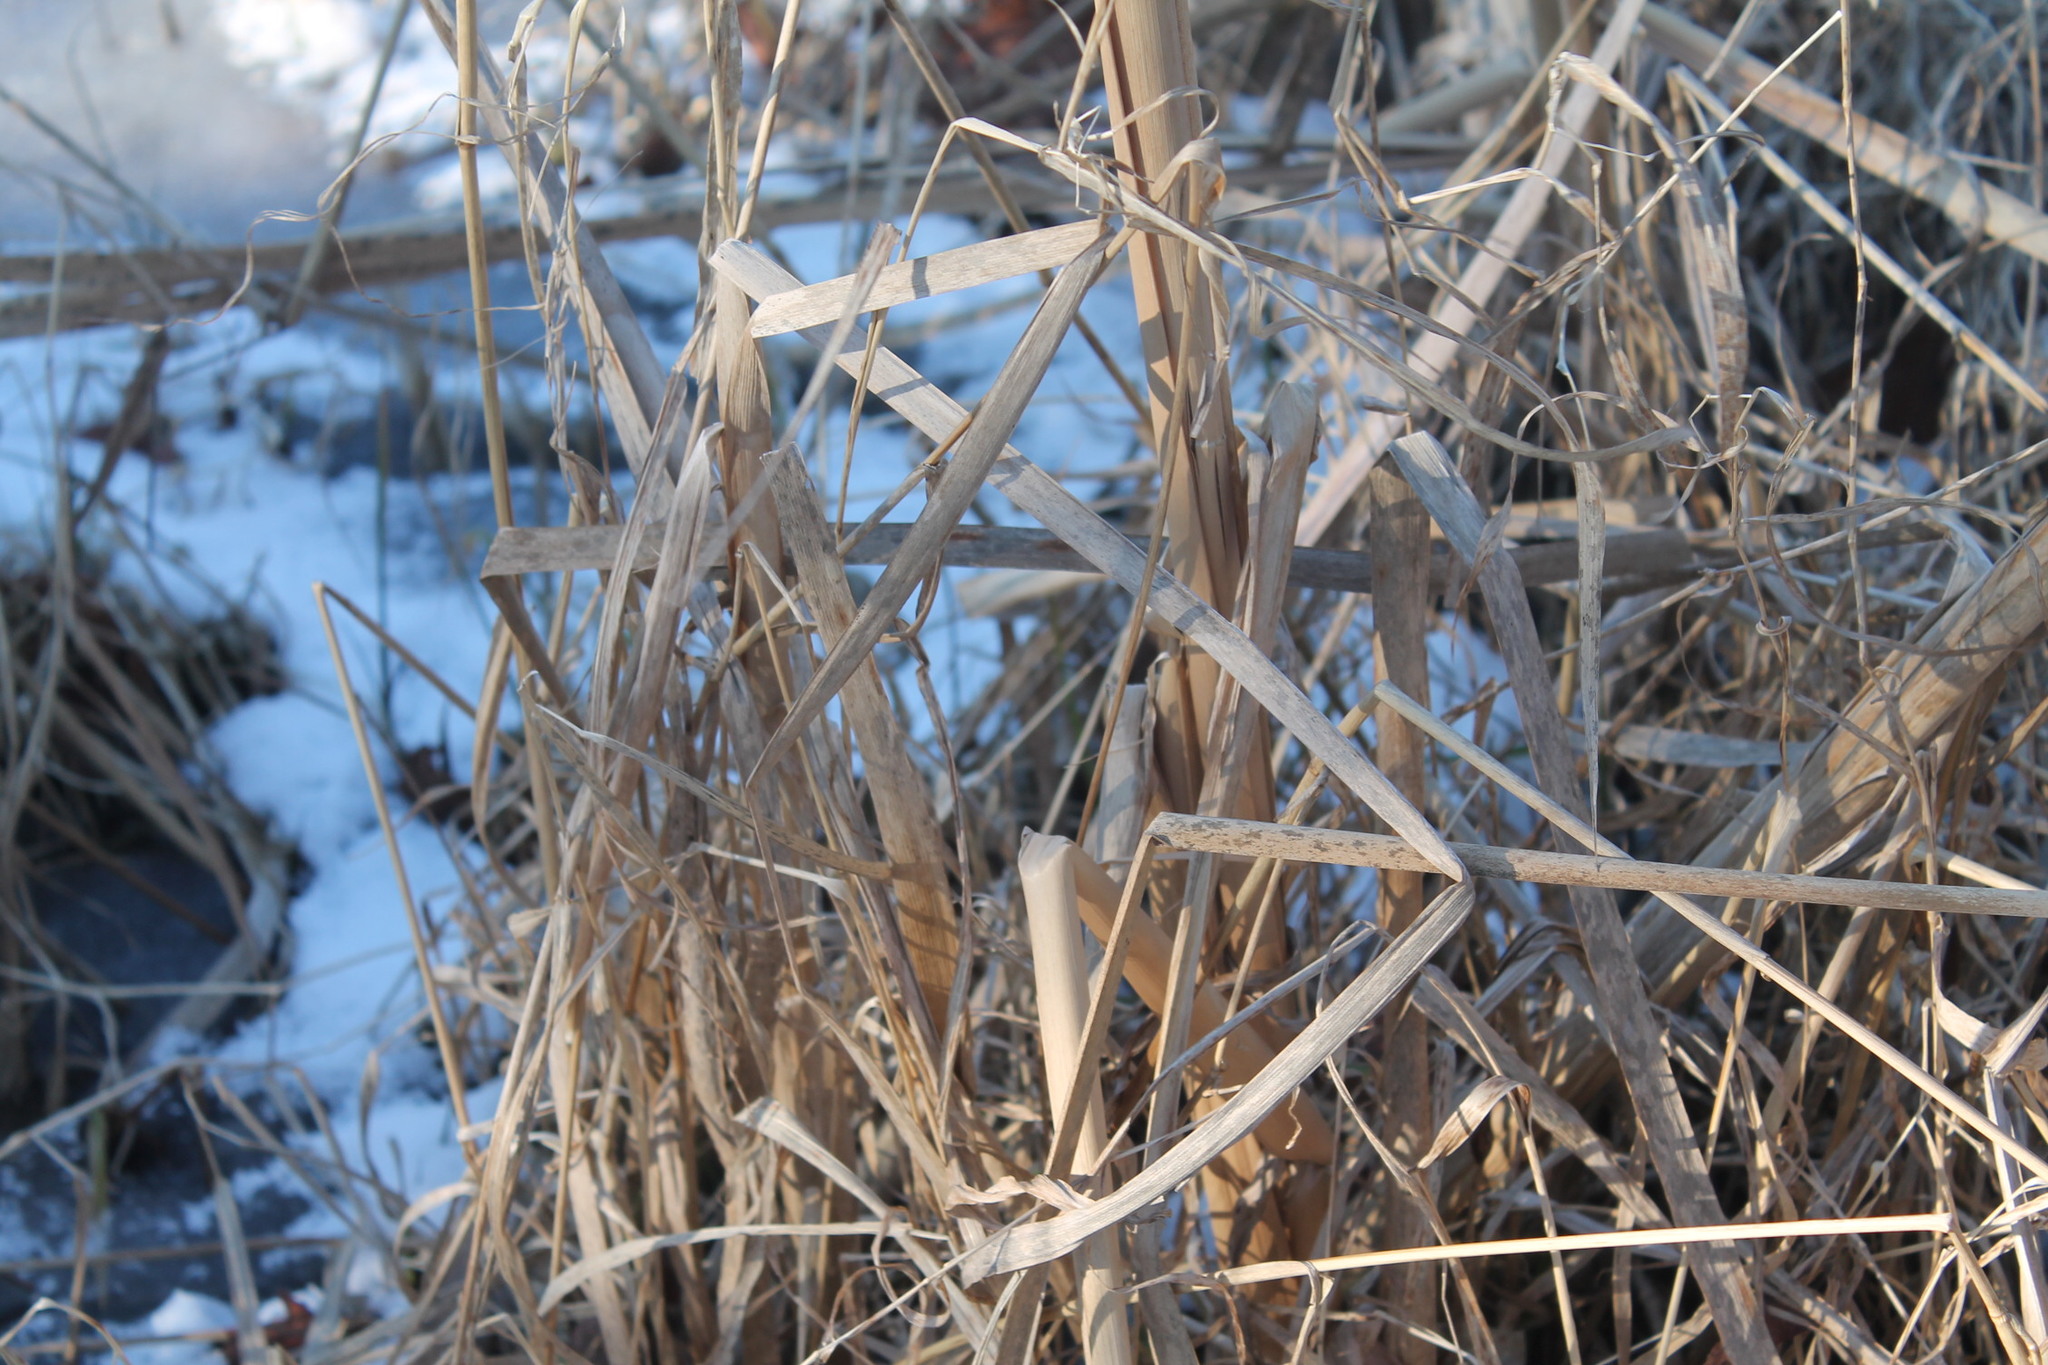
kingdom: Plantae
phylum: Tracheophyta
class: Liliopsida
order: Poales
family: Typhaceae
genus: Typha
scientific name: Typha latifolia
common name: Broadleaf cattail
